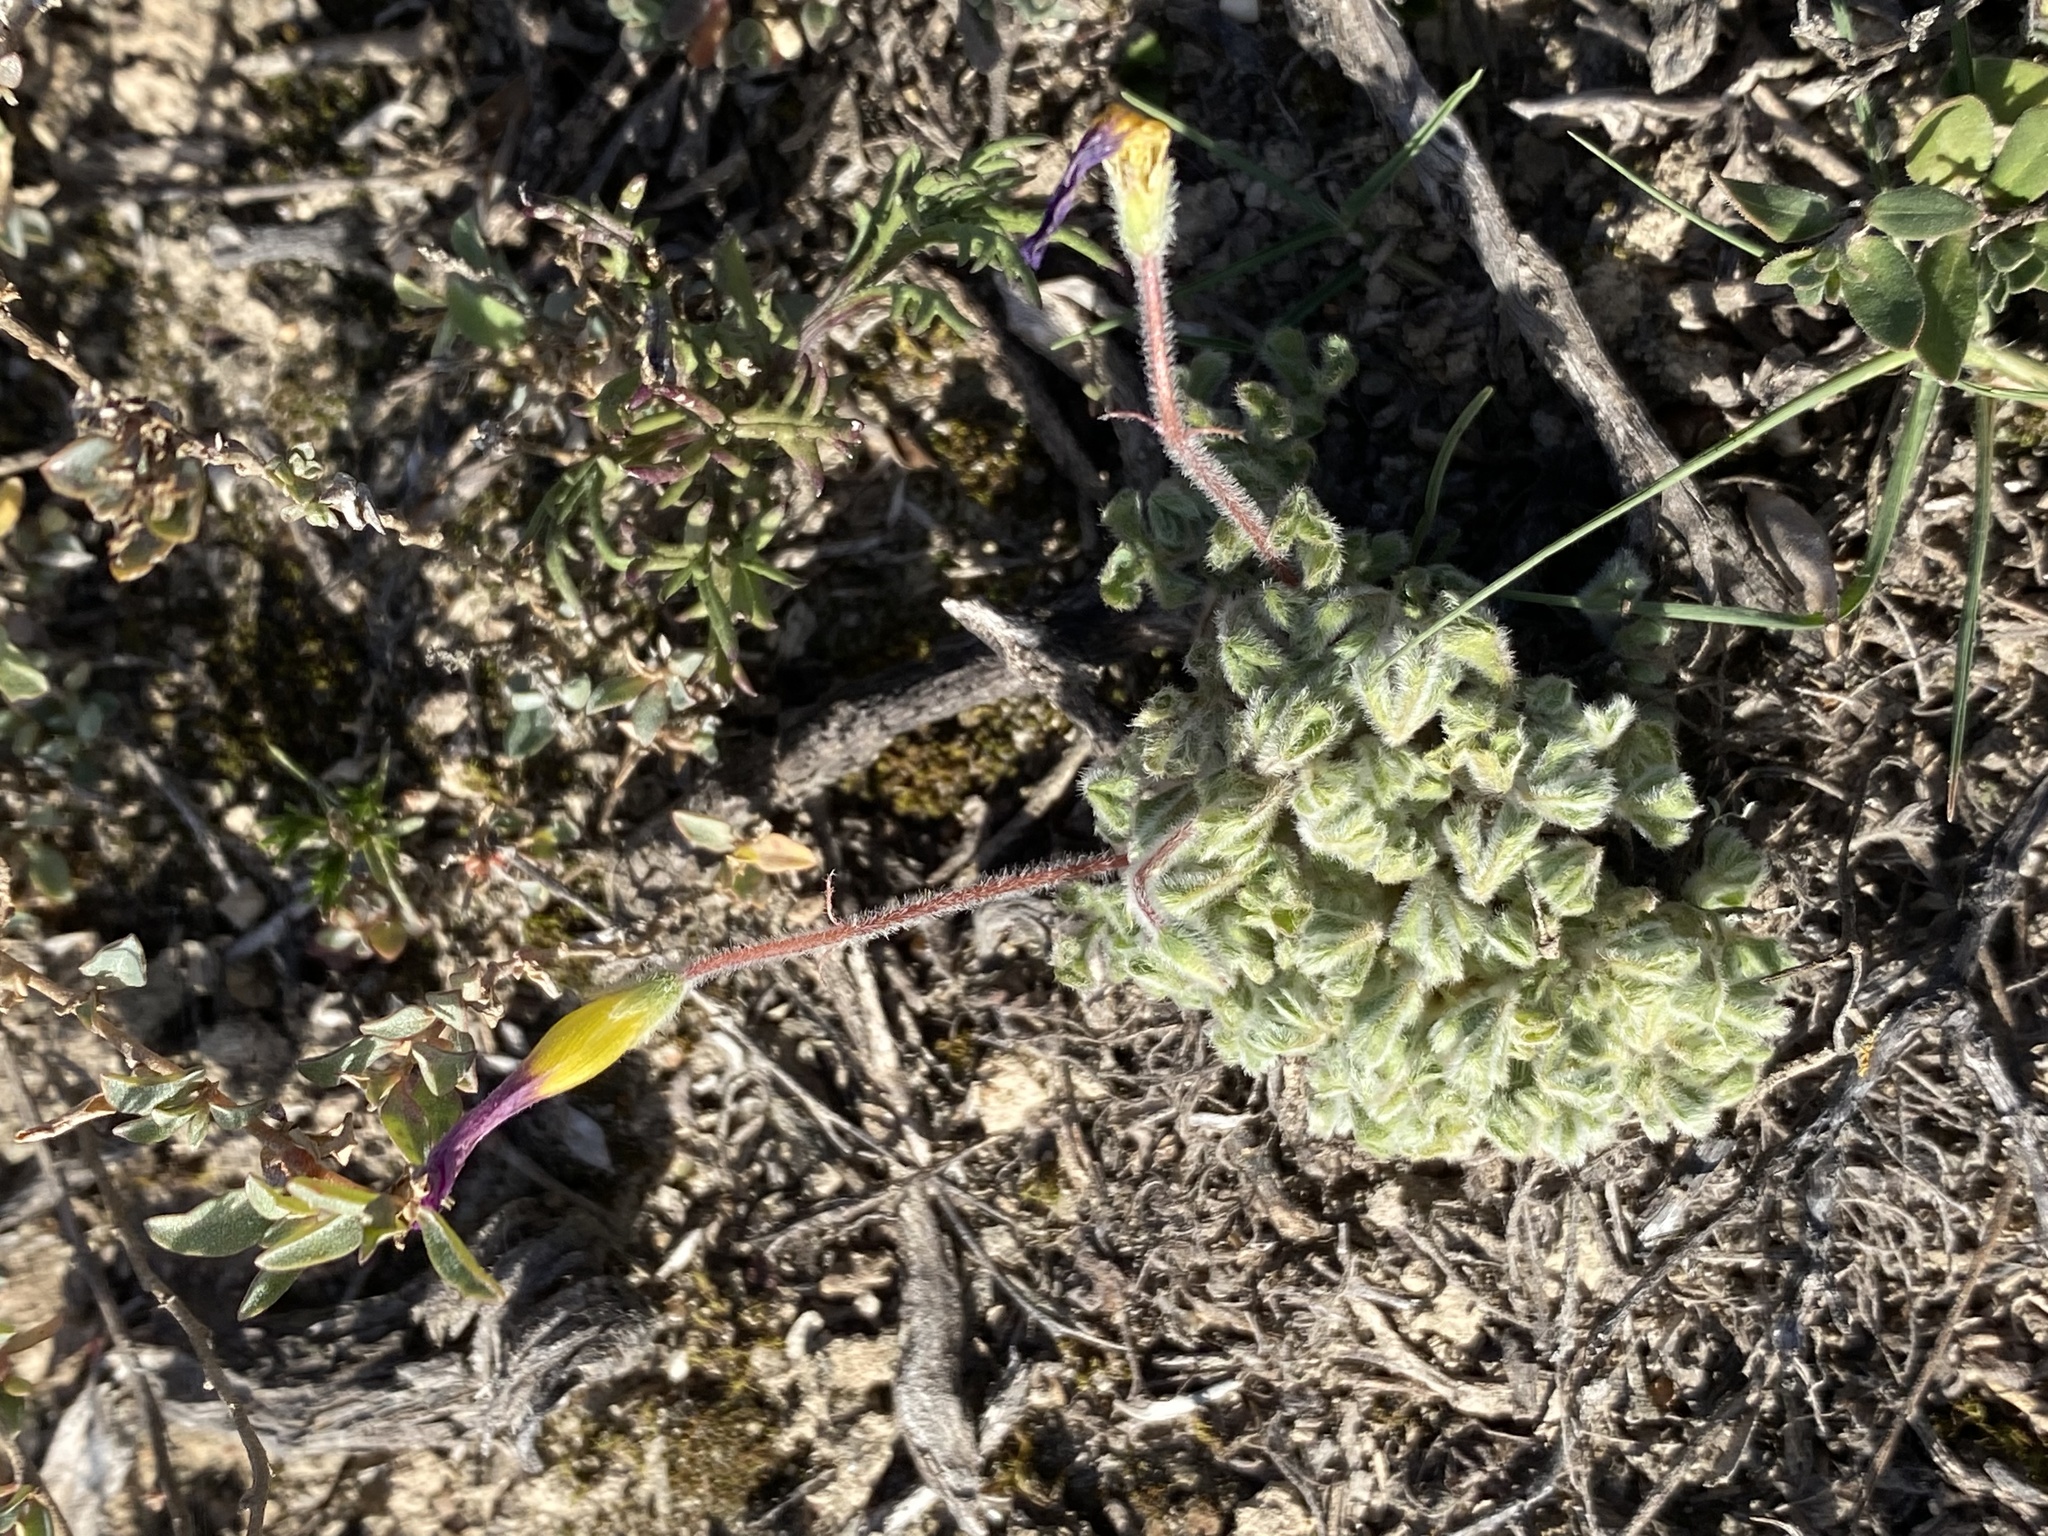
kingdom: Plantae
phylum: Tracheophyta
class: Magnoliopsida
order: Oxalidales
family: Oxalidaceae
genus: Oxalis
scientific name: Oxalis imbricata
